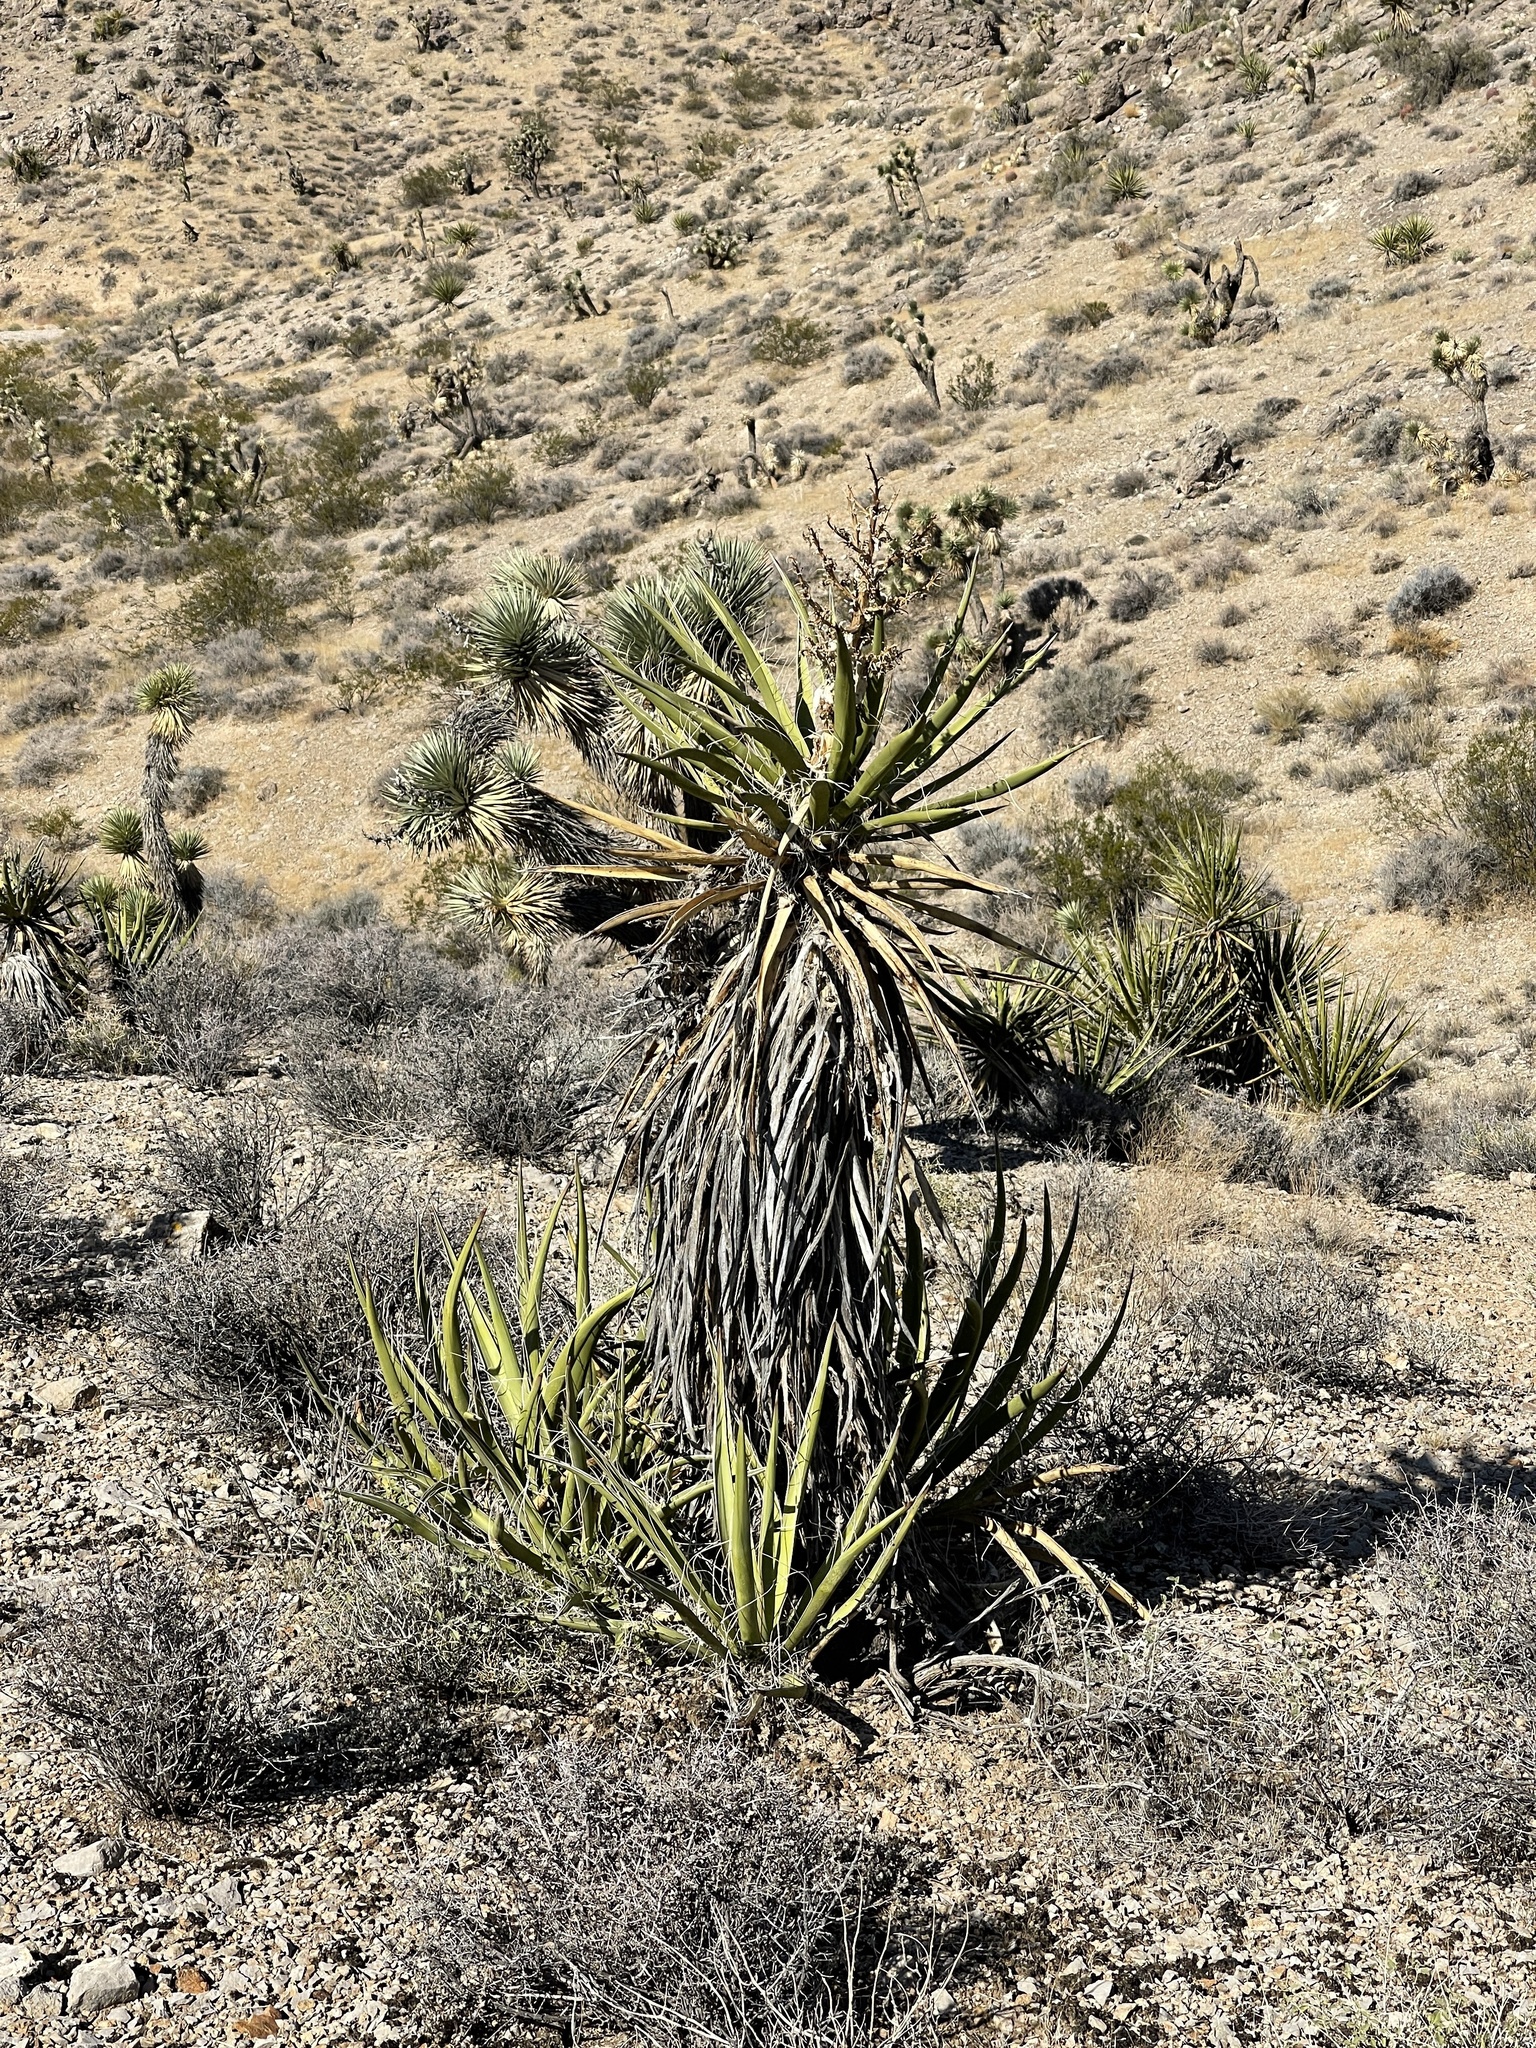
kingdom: Plantae
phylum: Tracheophyta
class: Liliopsida
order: Asparagales
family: Asparagaceae
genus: Yucca
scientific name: Yucca schidigera
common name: Mojave yucca
